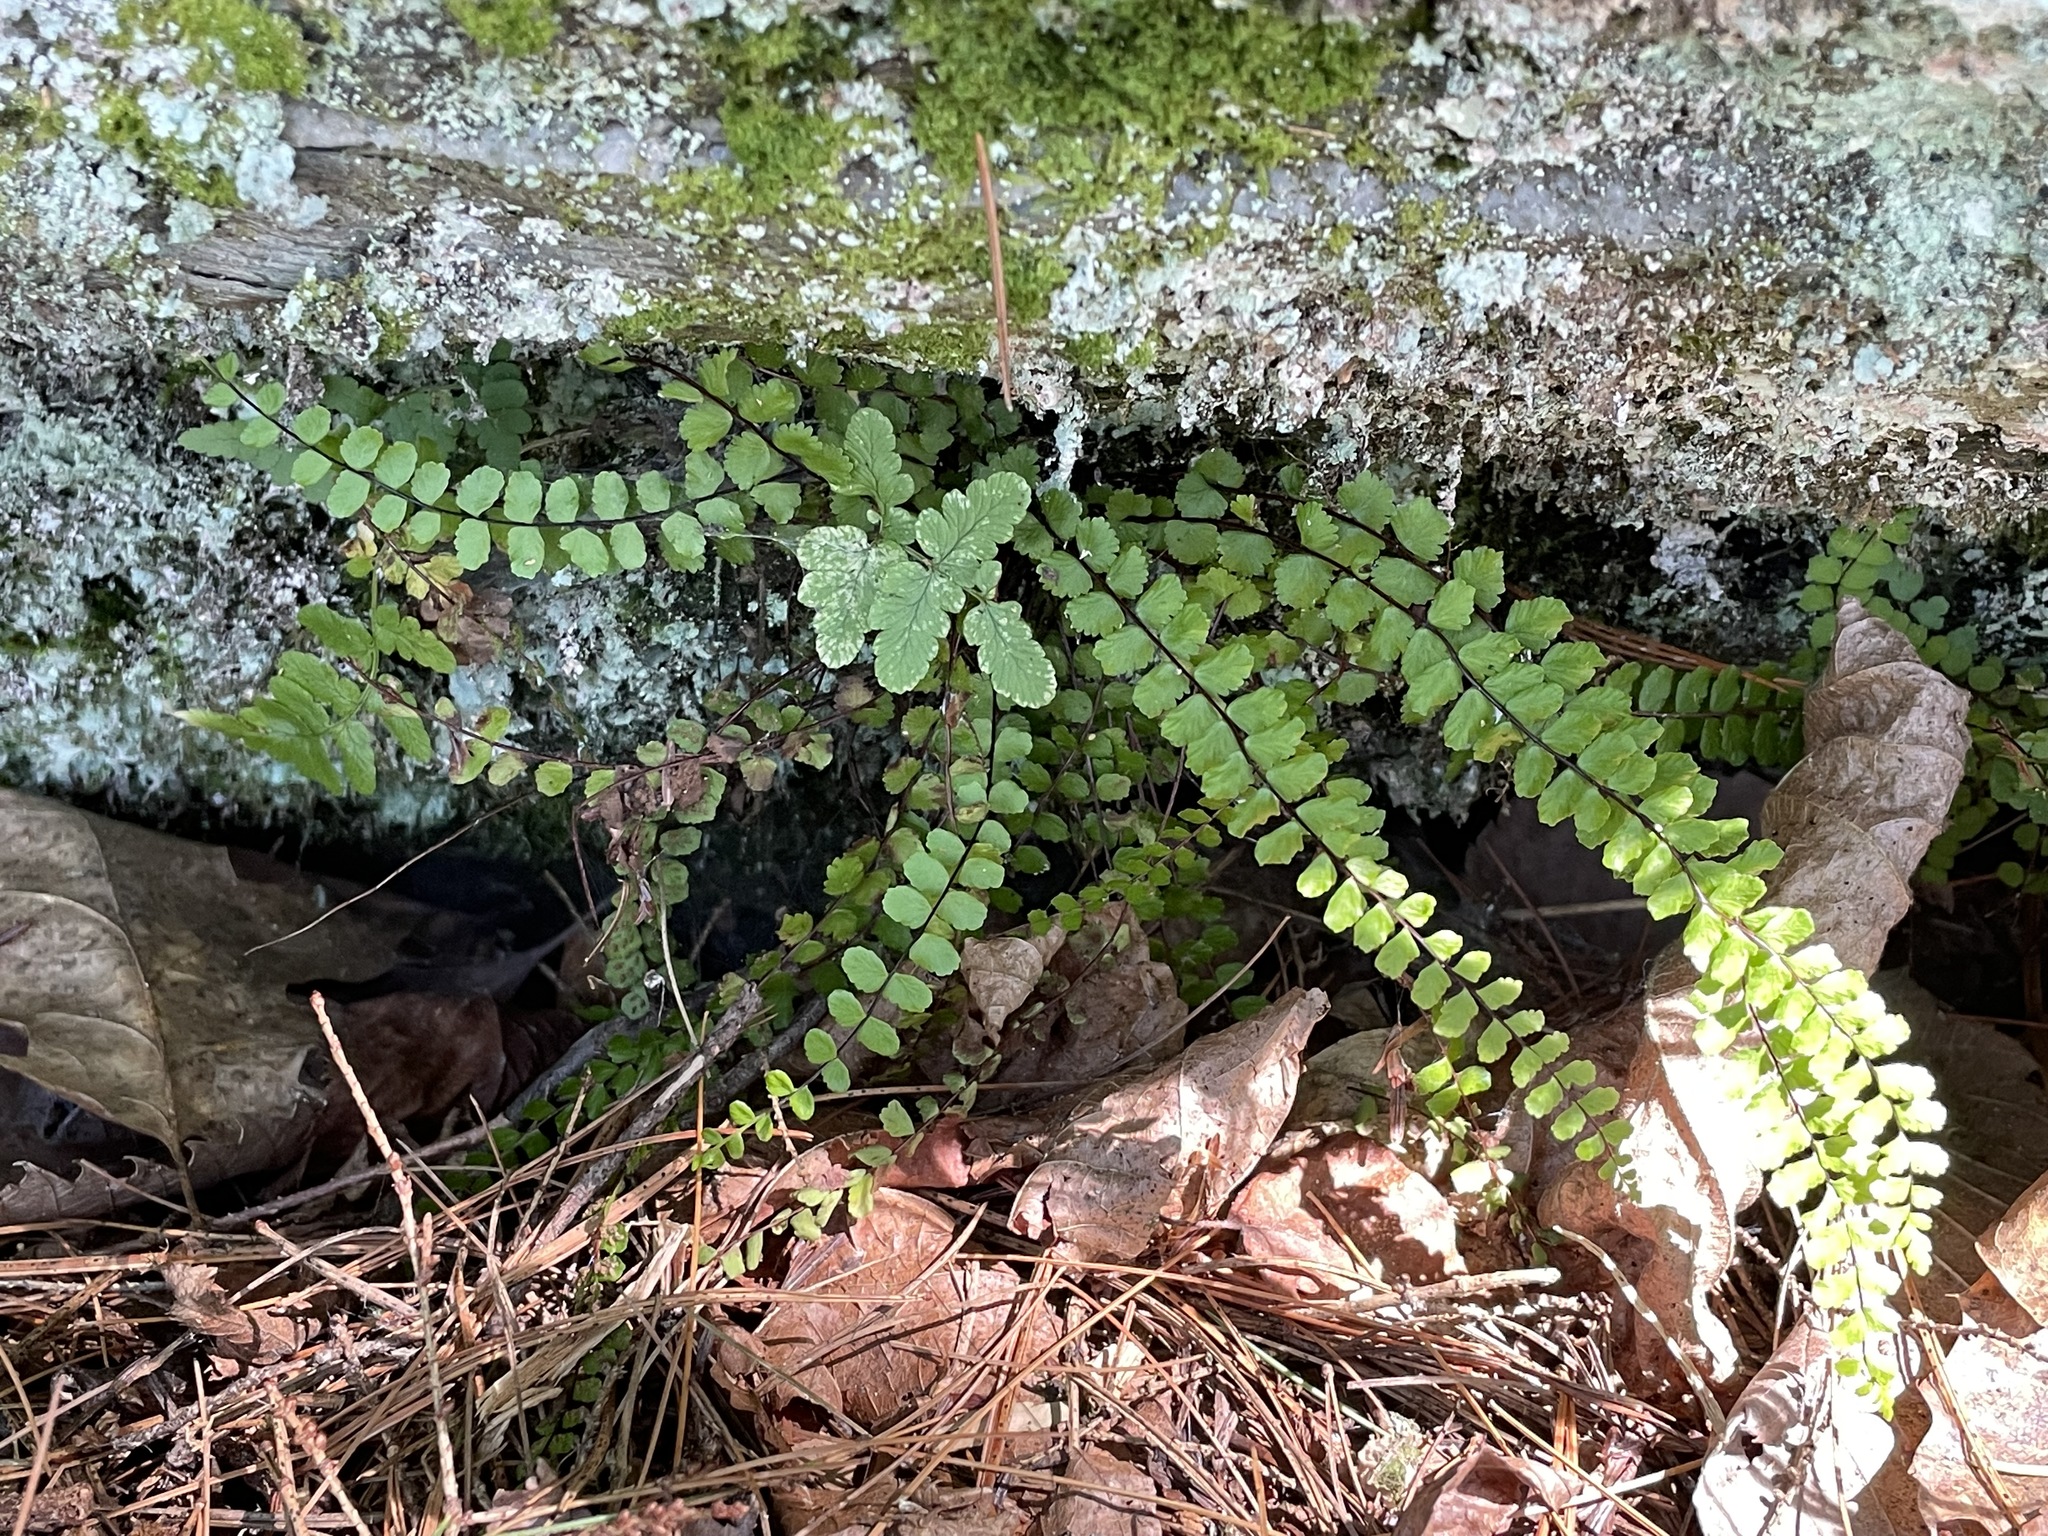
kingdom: Plantae
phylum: Tracheophyta
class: Polypodiopsida
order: Polypodiales
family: Aspleniaceae
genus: Asplenium
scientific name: Asplenium trichomanes
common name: Maidenhair spleenwort
